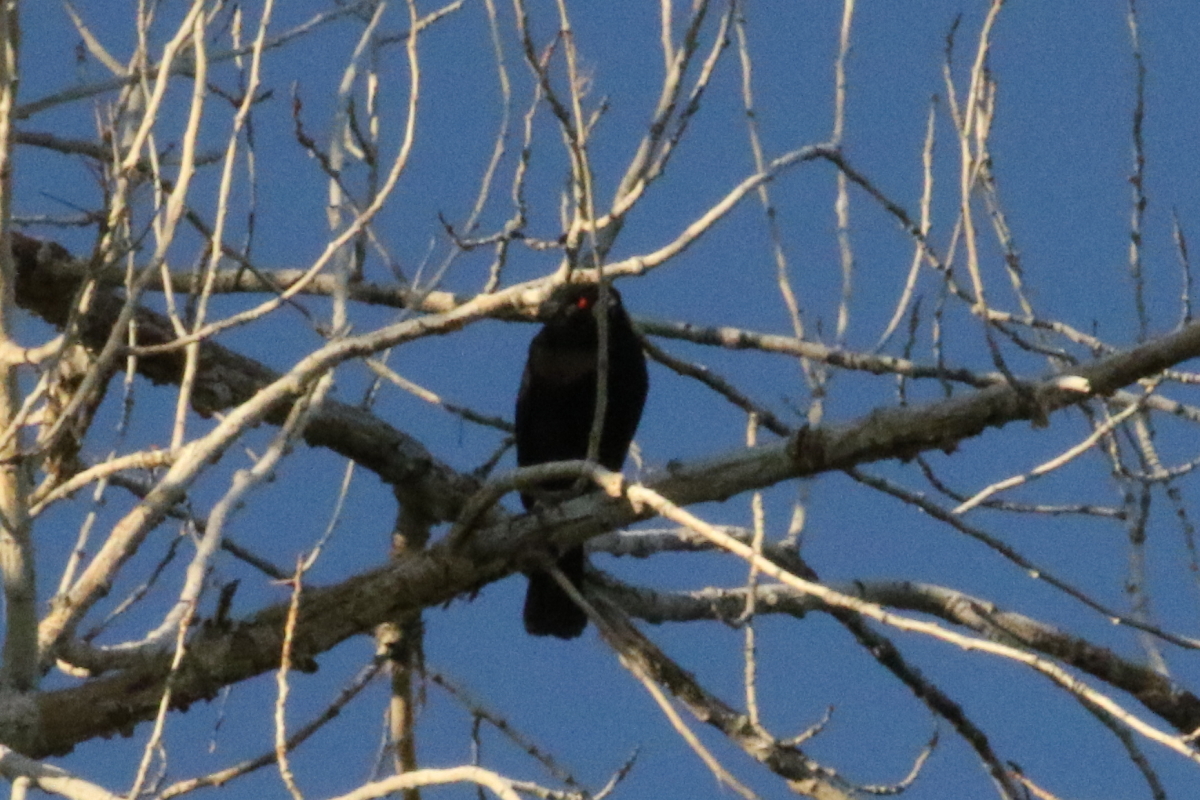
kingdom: Animalia
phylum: Chordata
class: Aves
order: Passeriformes
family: Icteridae
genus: Molothrus
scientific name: Molothrus aeneus
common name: Bronzed cowbird
